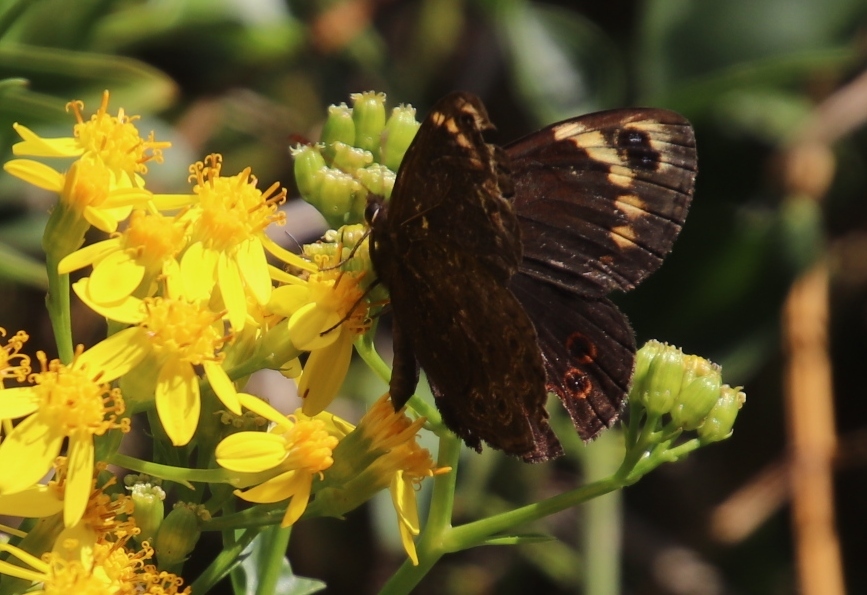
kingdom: Animalia
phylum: Arthropoda
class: Insecta
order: Lepidoptera
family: Nymphalidae
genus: Dira
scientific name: Dira clytus
